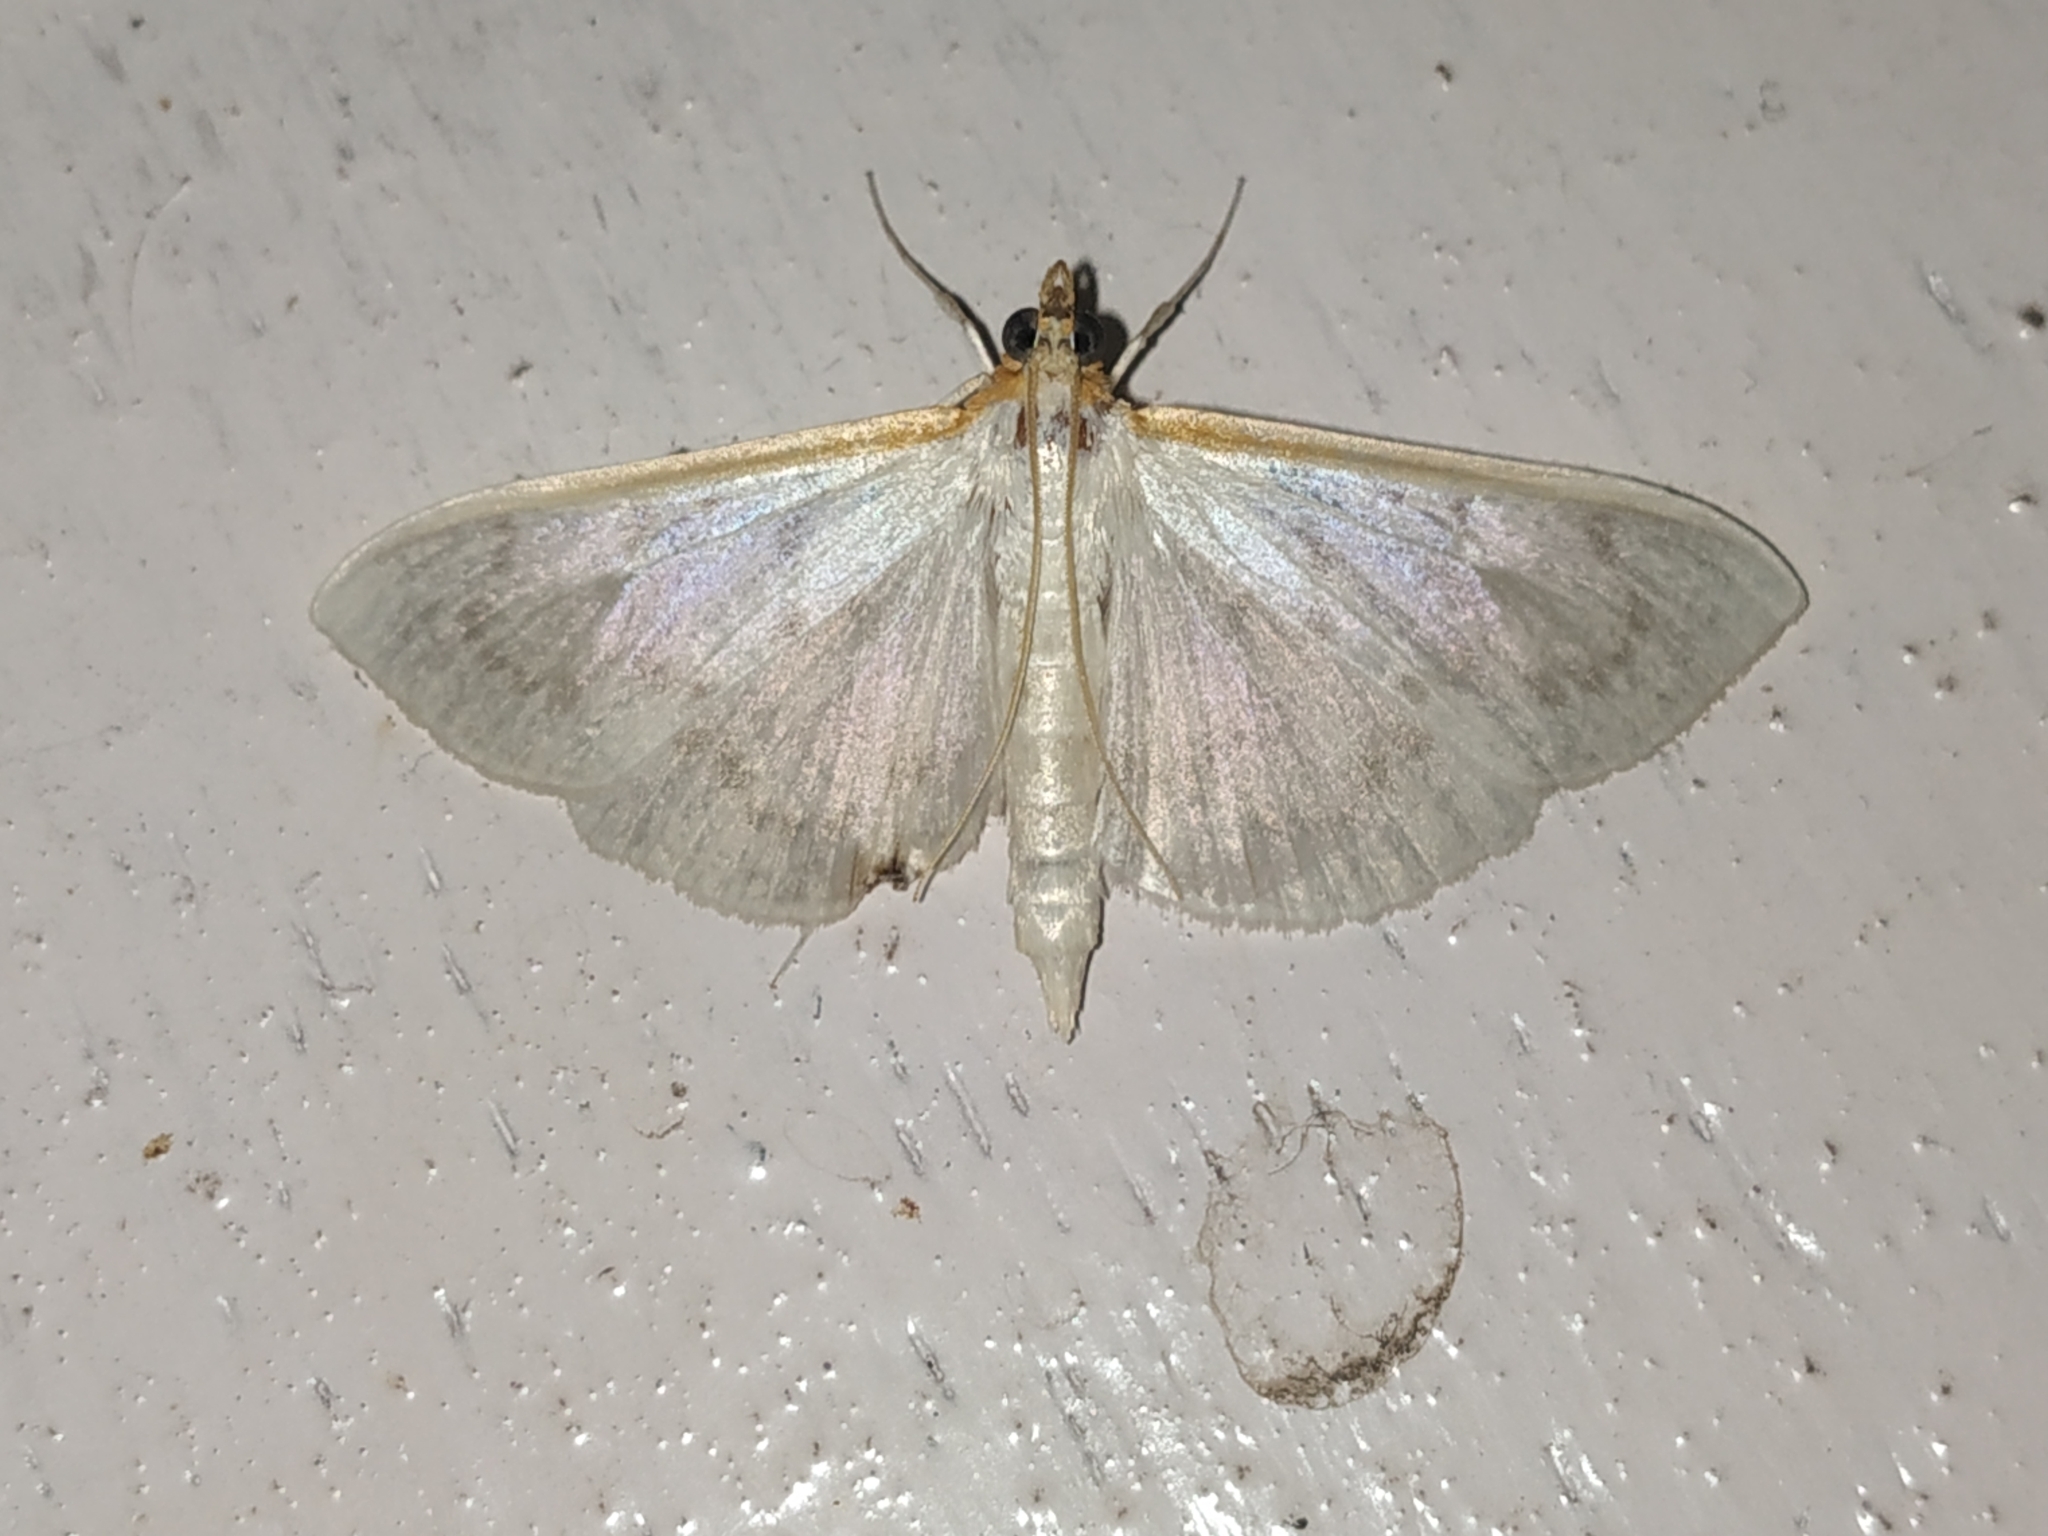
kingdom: Animalia
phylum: Arthropoda
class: Insecta
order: Lepidoptera
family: Crambidae
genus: Pyrausta
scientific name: Pyrausta testalis
